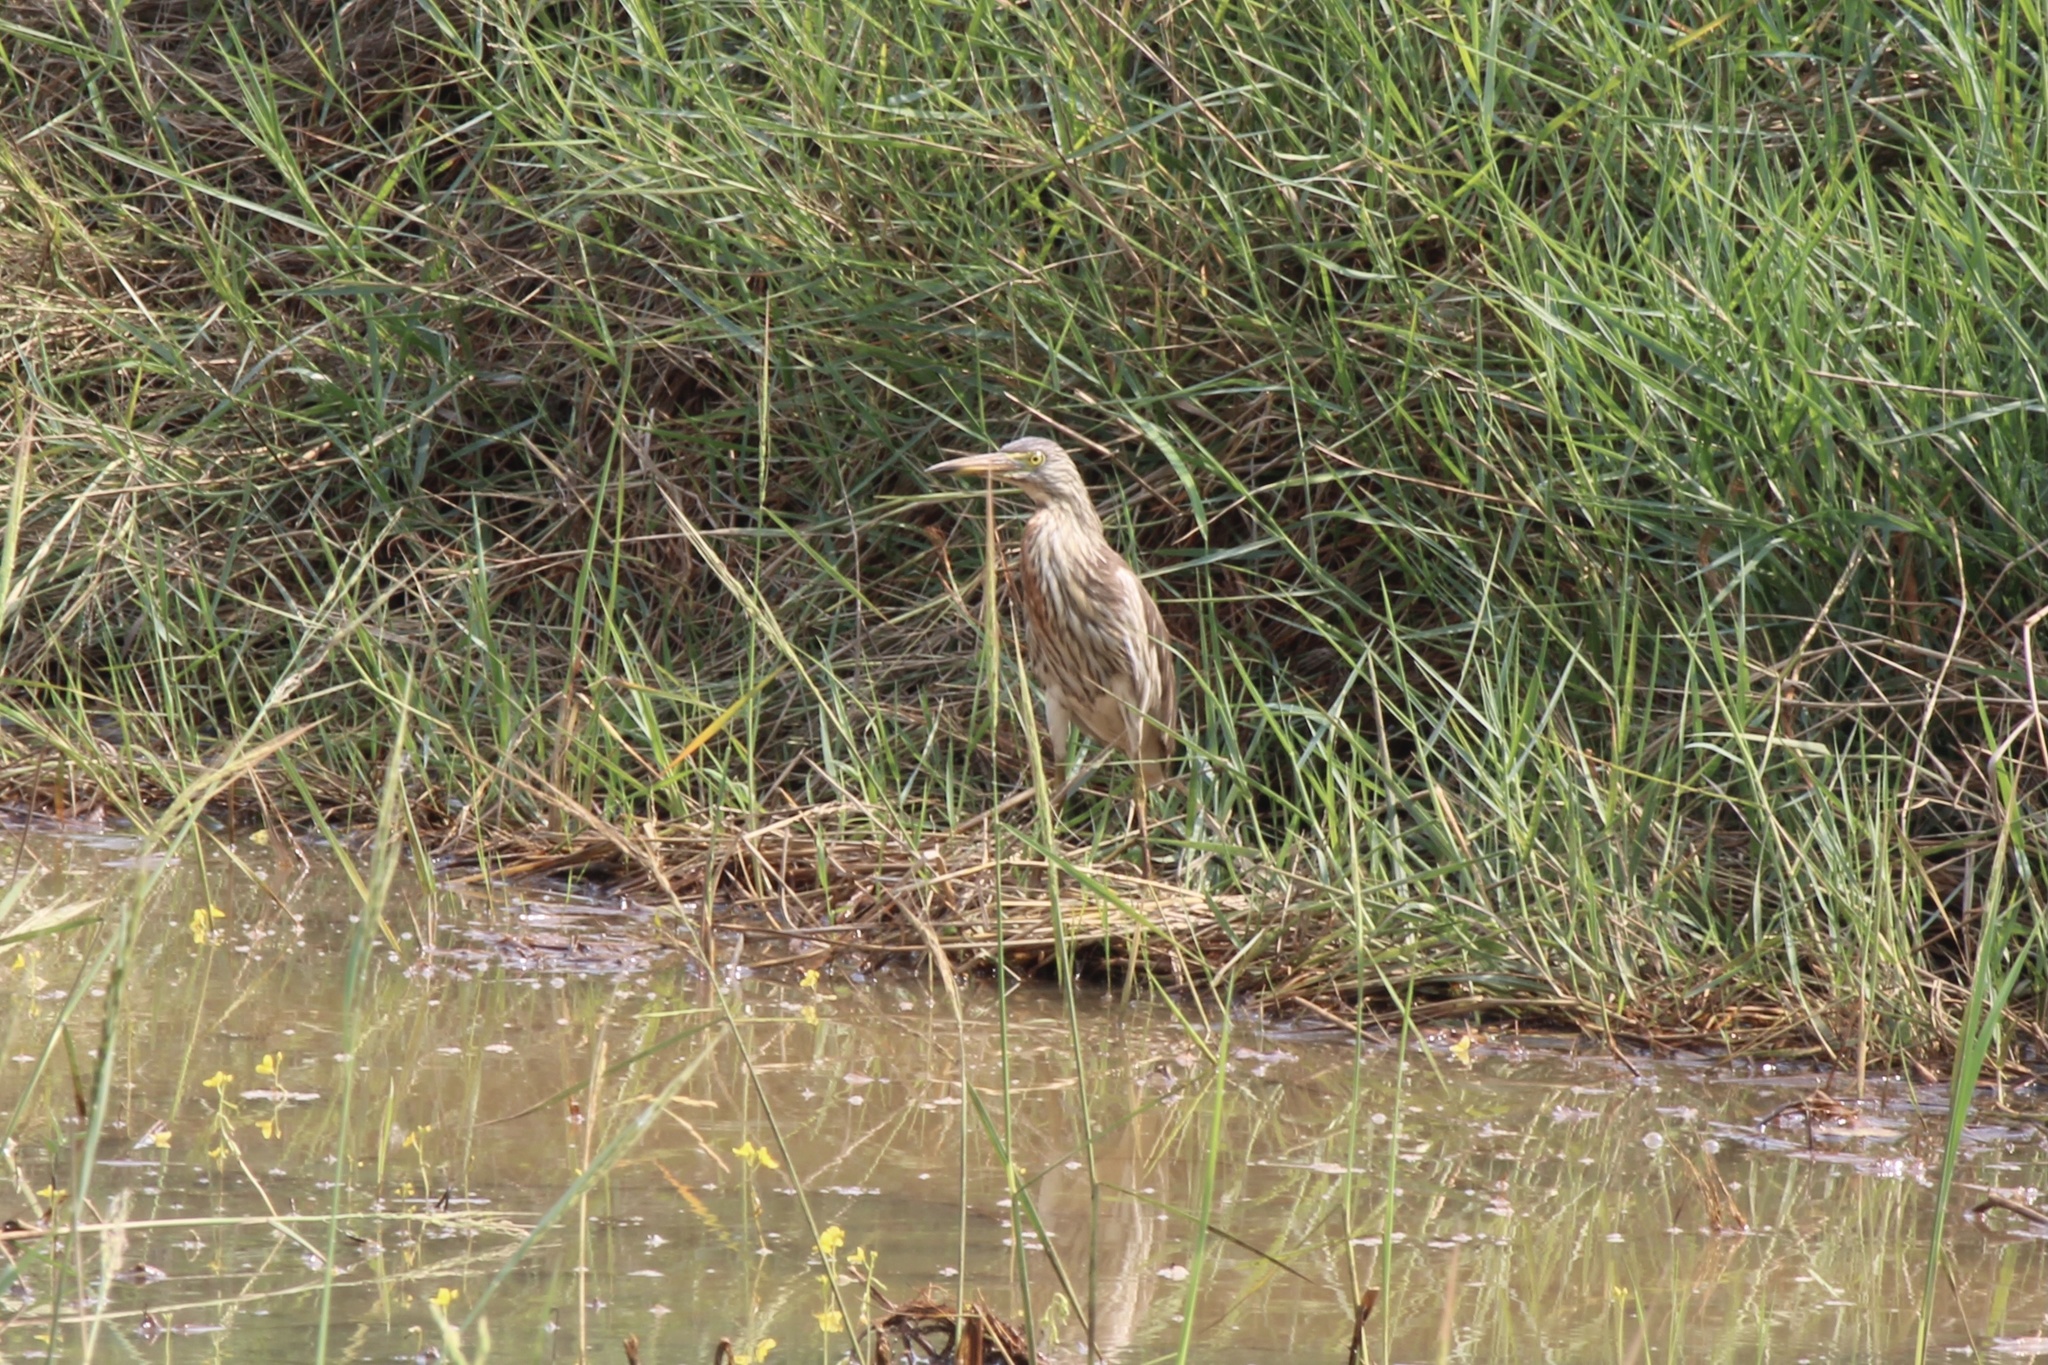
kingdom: Animalia
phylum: Chordata
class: Aves
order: Pelecaniformes
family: Ardeidae
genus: Ardeola
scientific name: Ardeola
